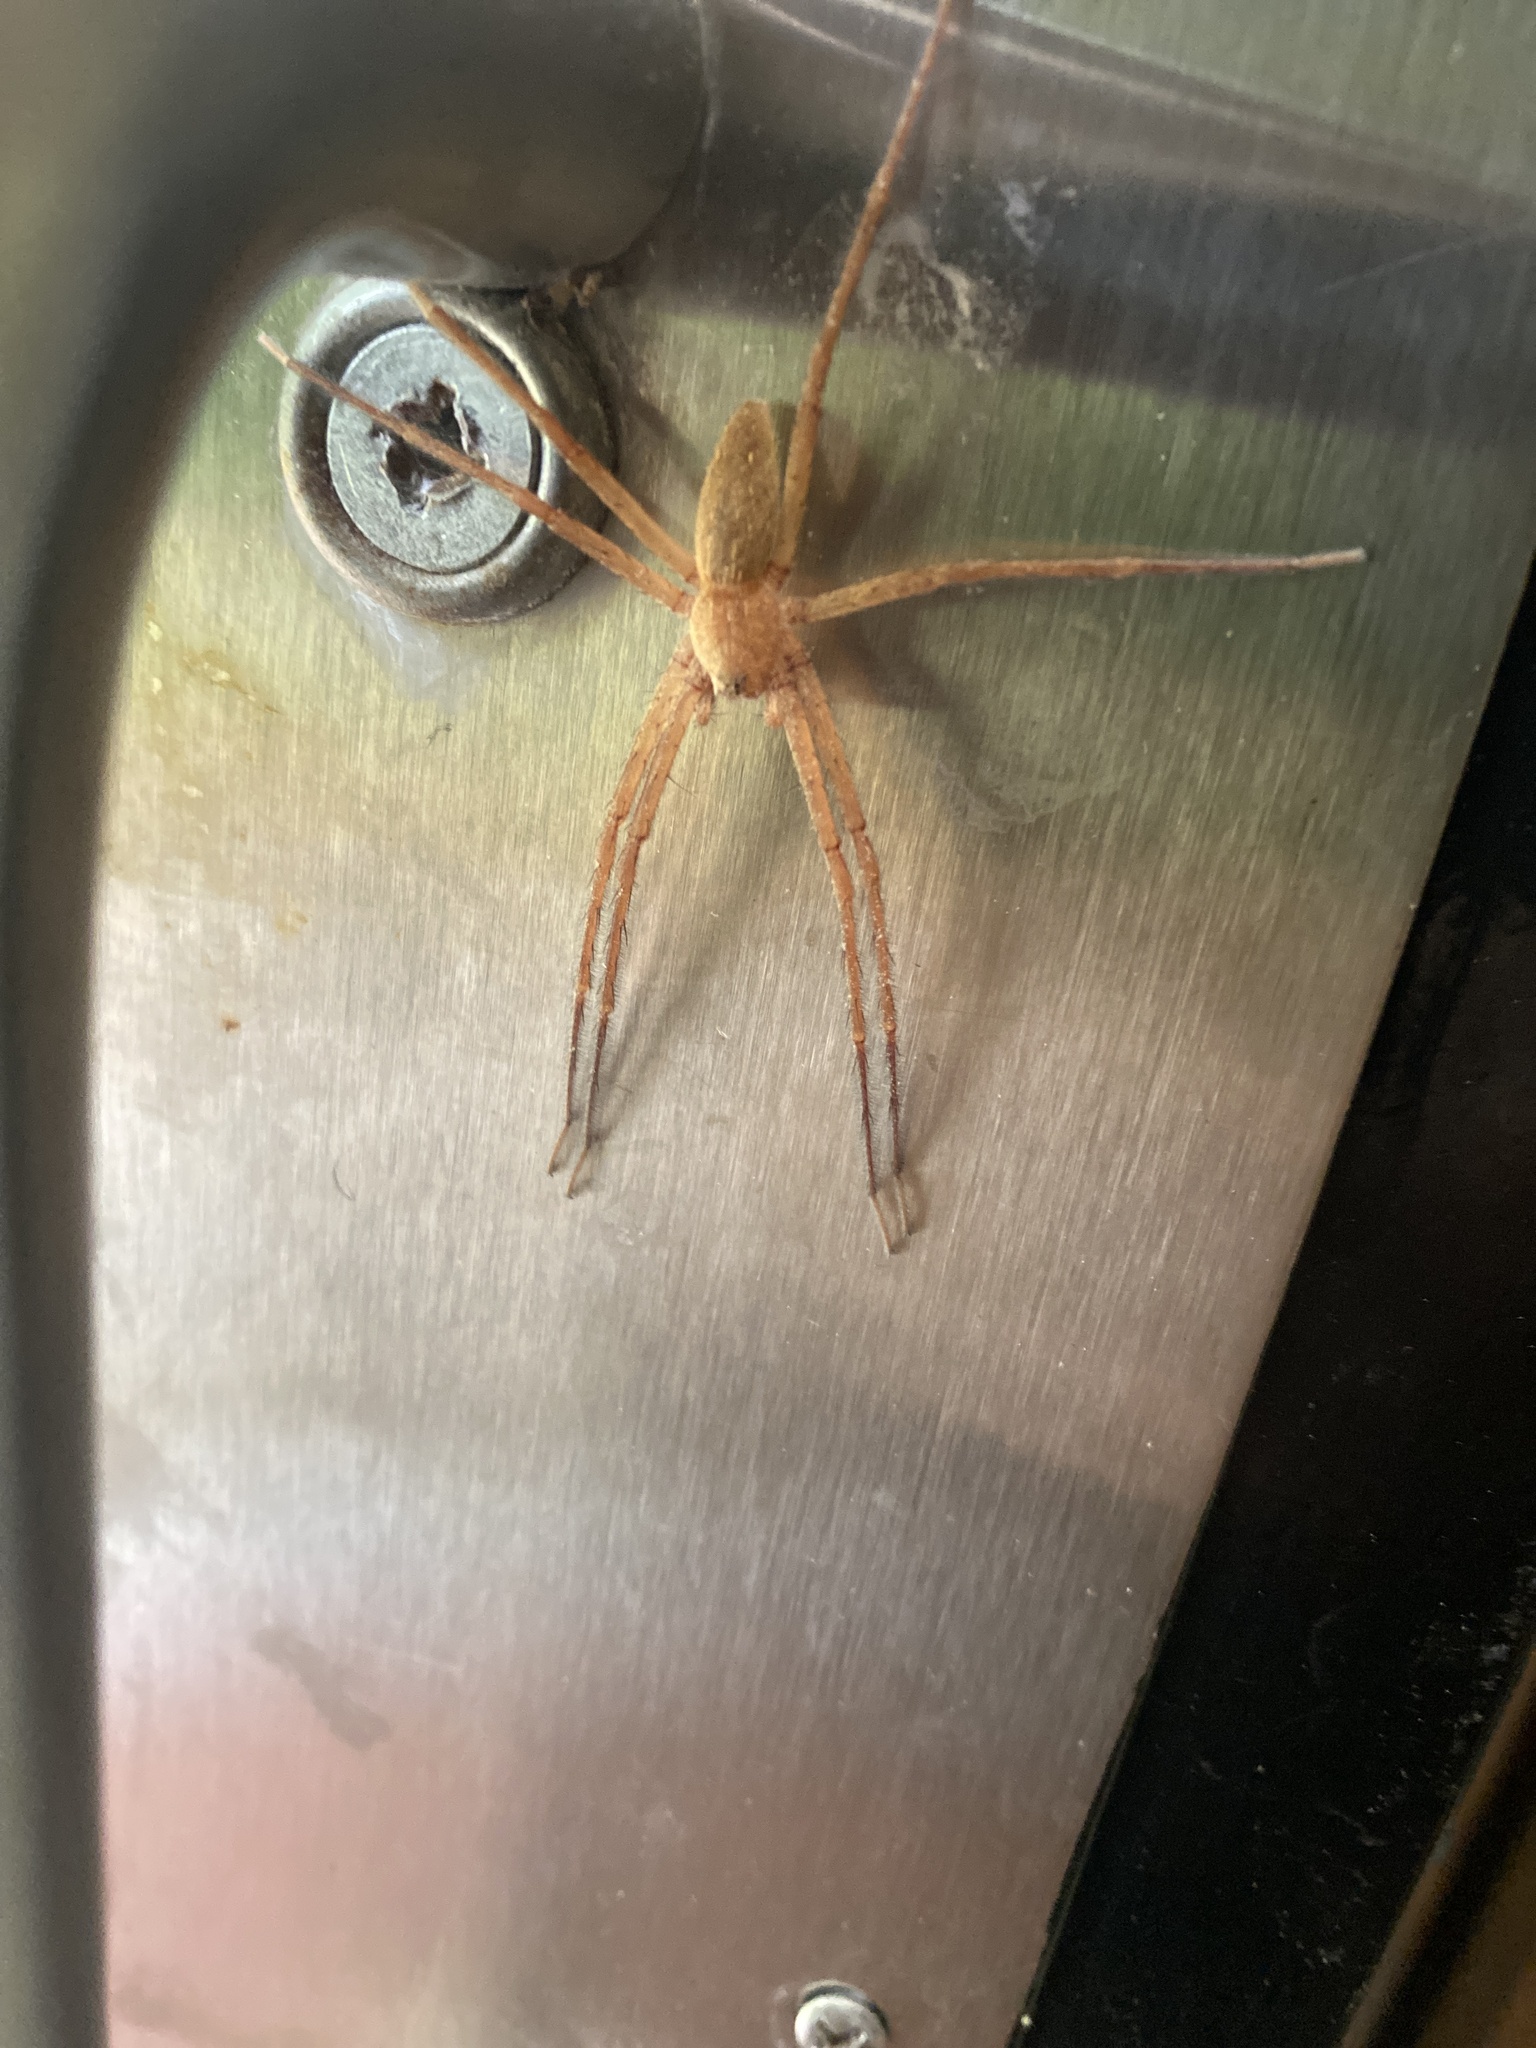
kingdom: Animalia
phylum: Arthropoda
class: Arachnida
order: Araneae
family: Pisauridae
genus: Pisaurina
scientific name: Pisaurina mira
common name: American nursery web spider
